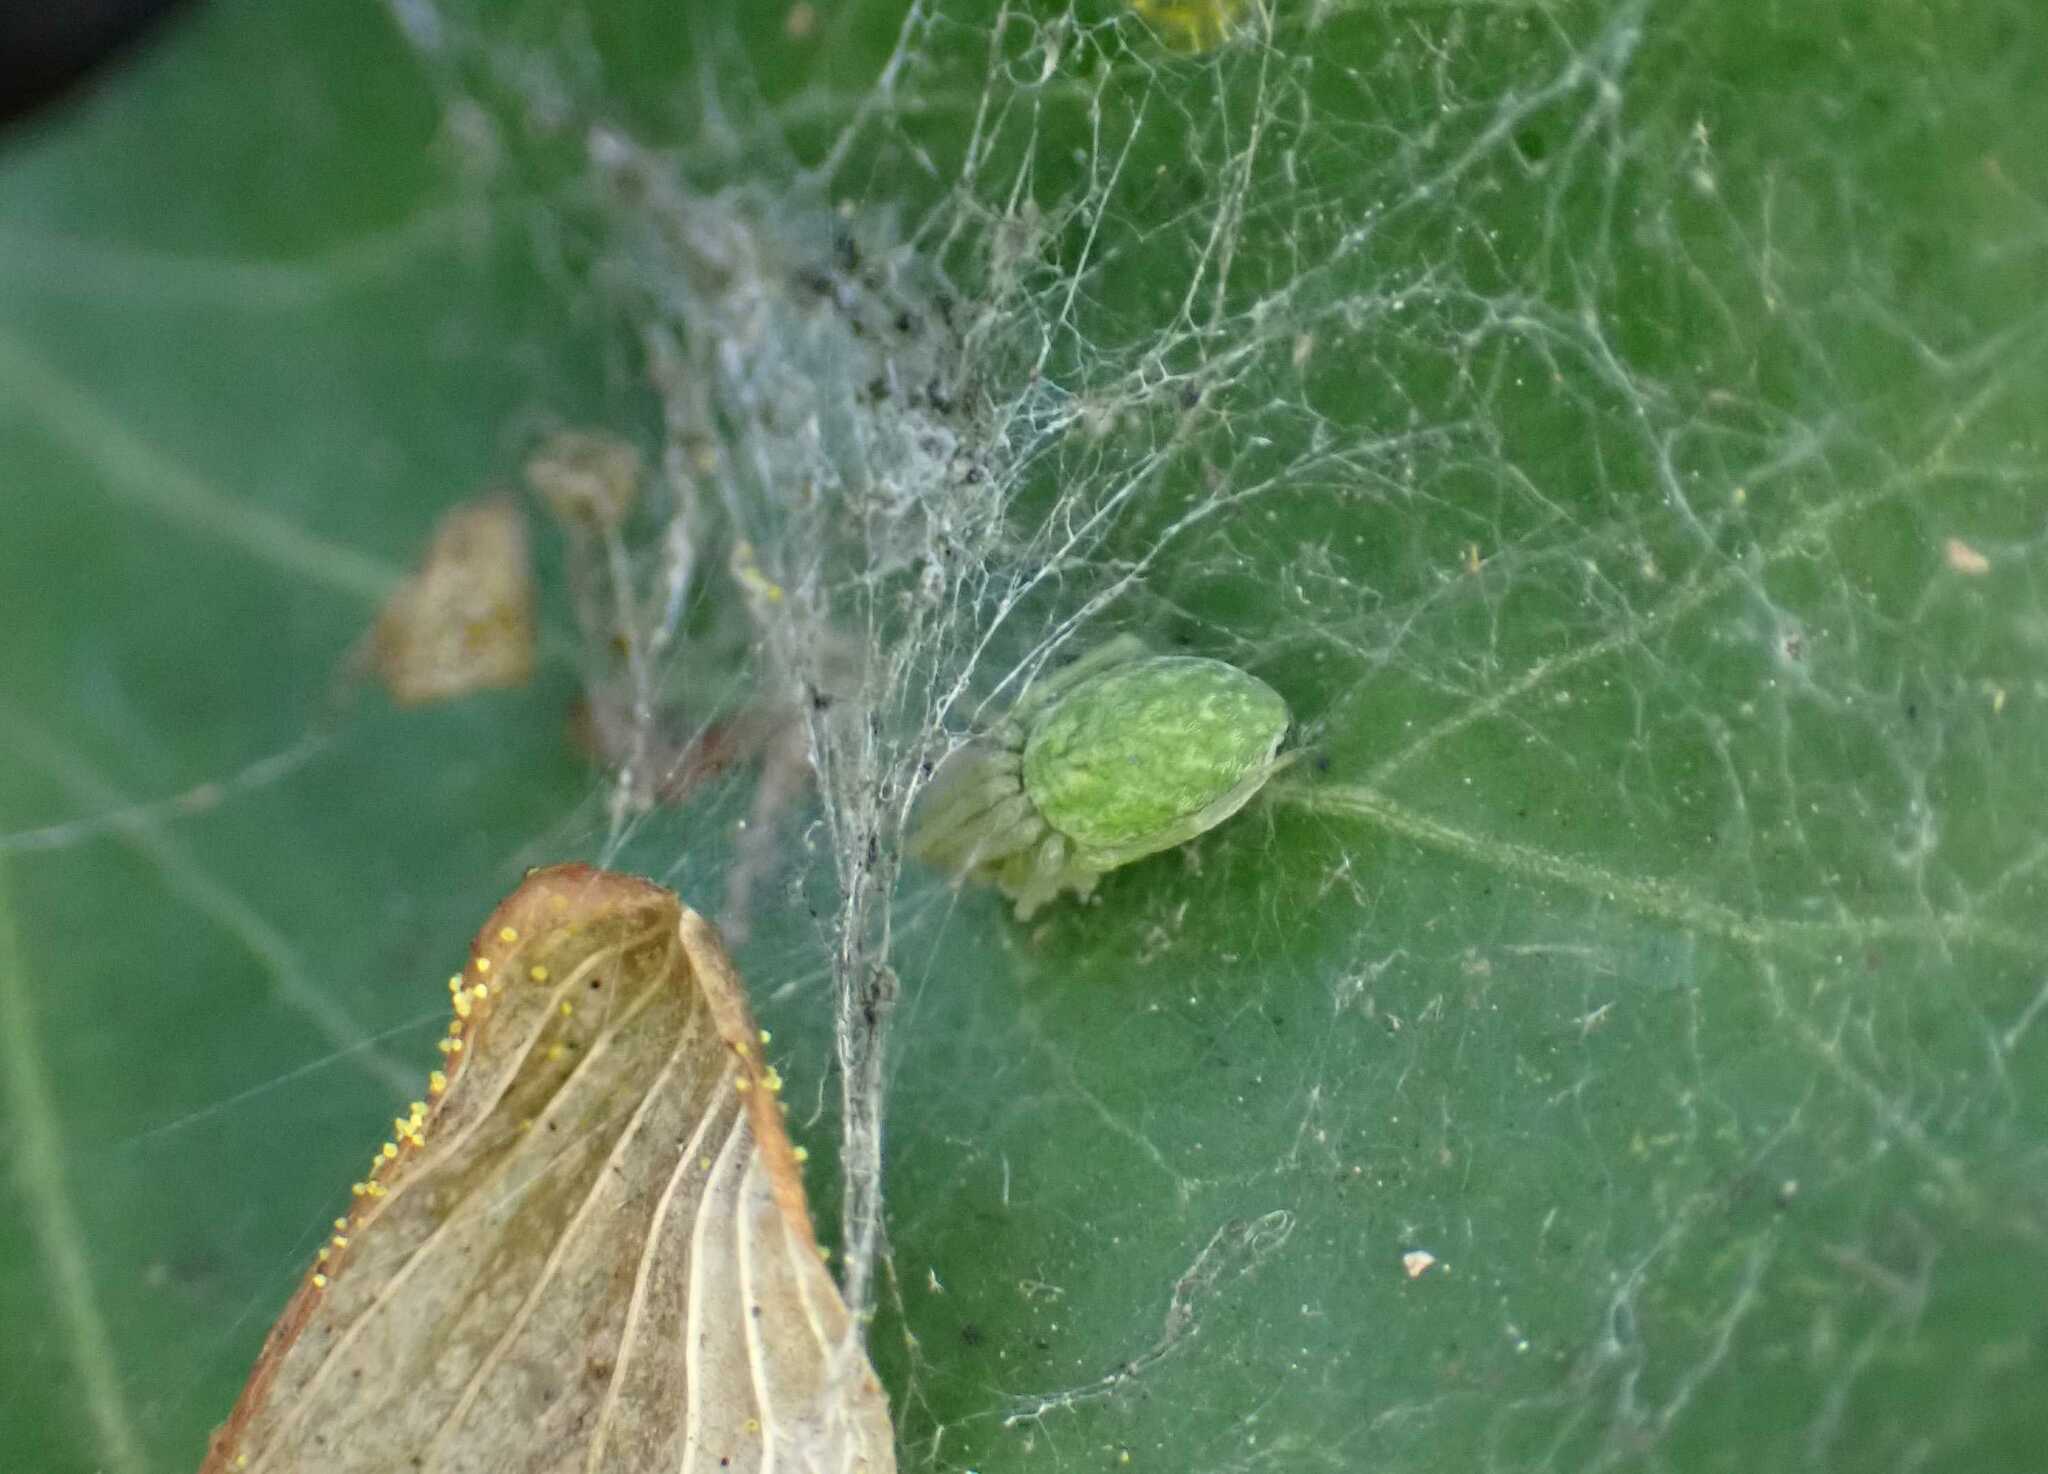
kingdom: Animalia
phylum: Arthropoda
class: Arachnida
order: Araneae
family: Dictynidae
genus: Nigma
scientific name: Nigma walckenaeri
